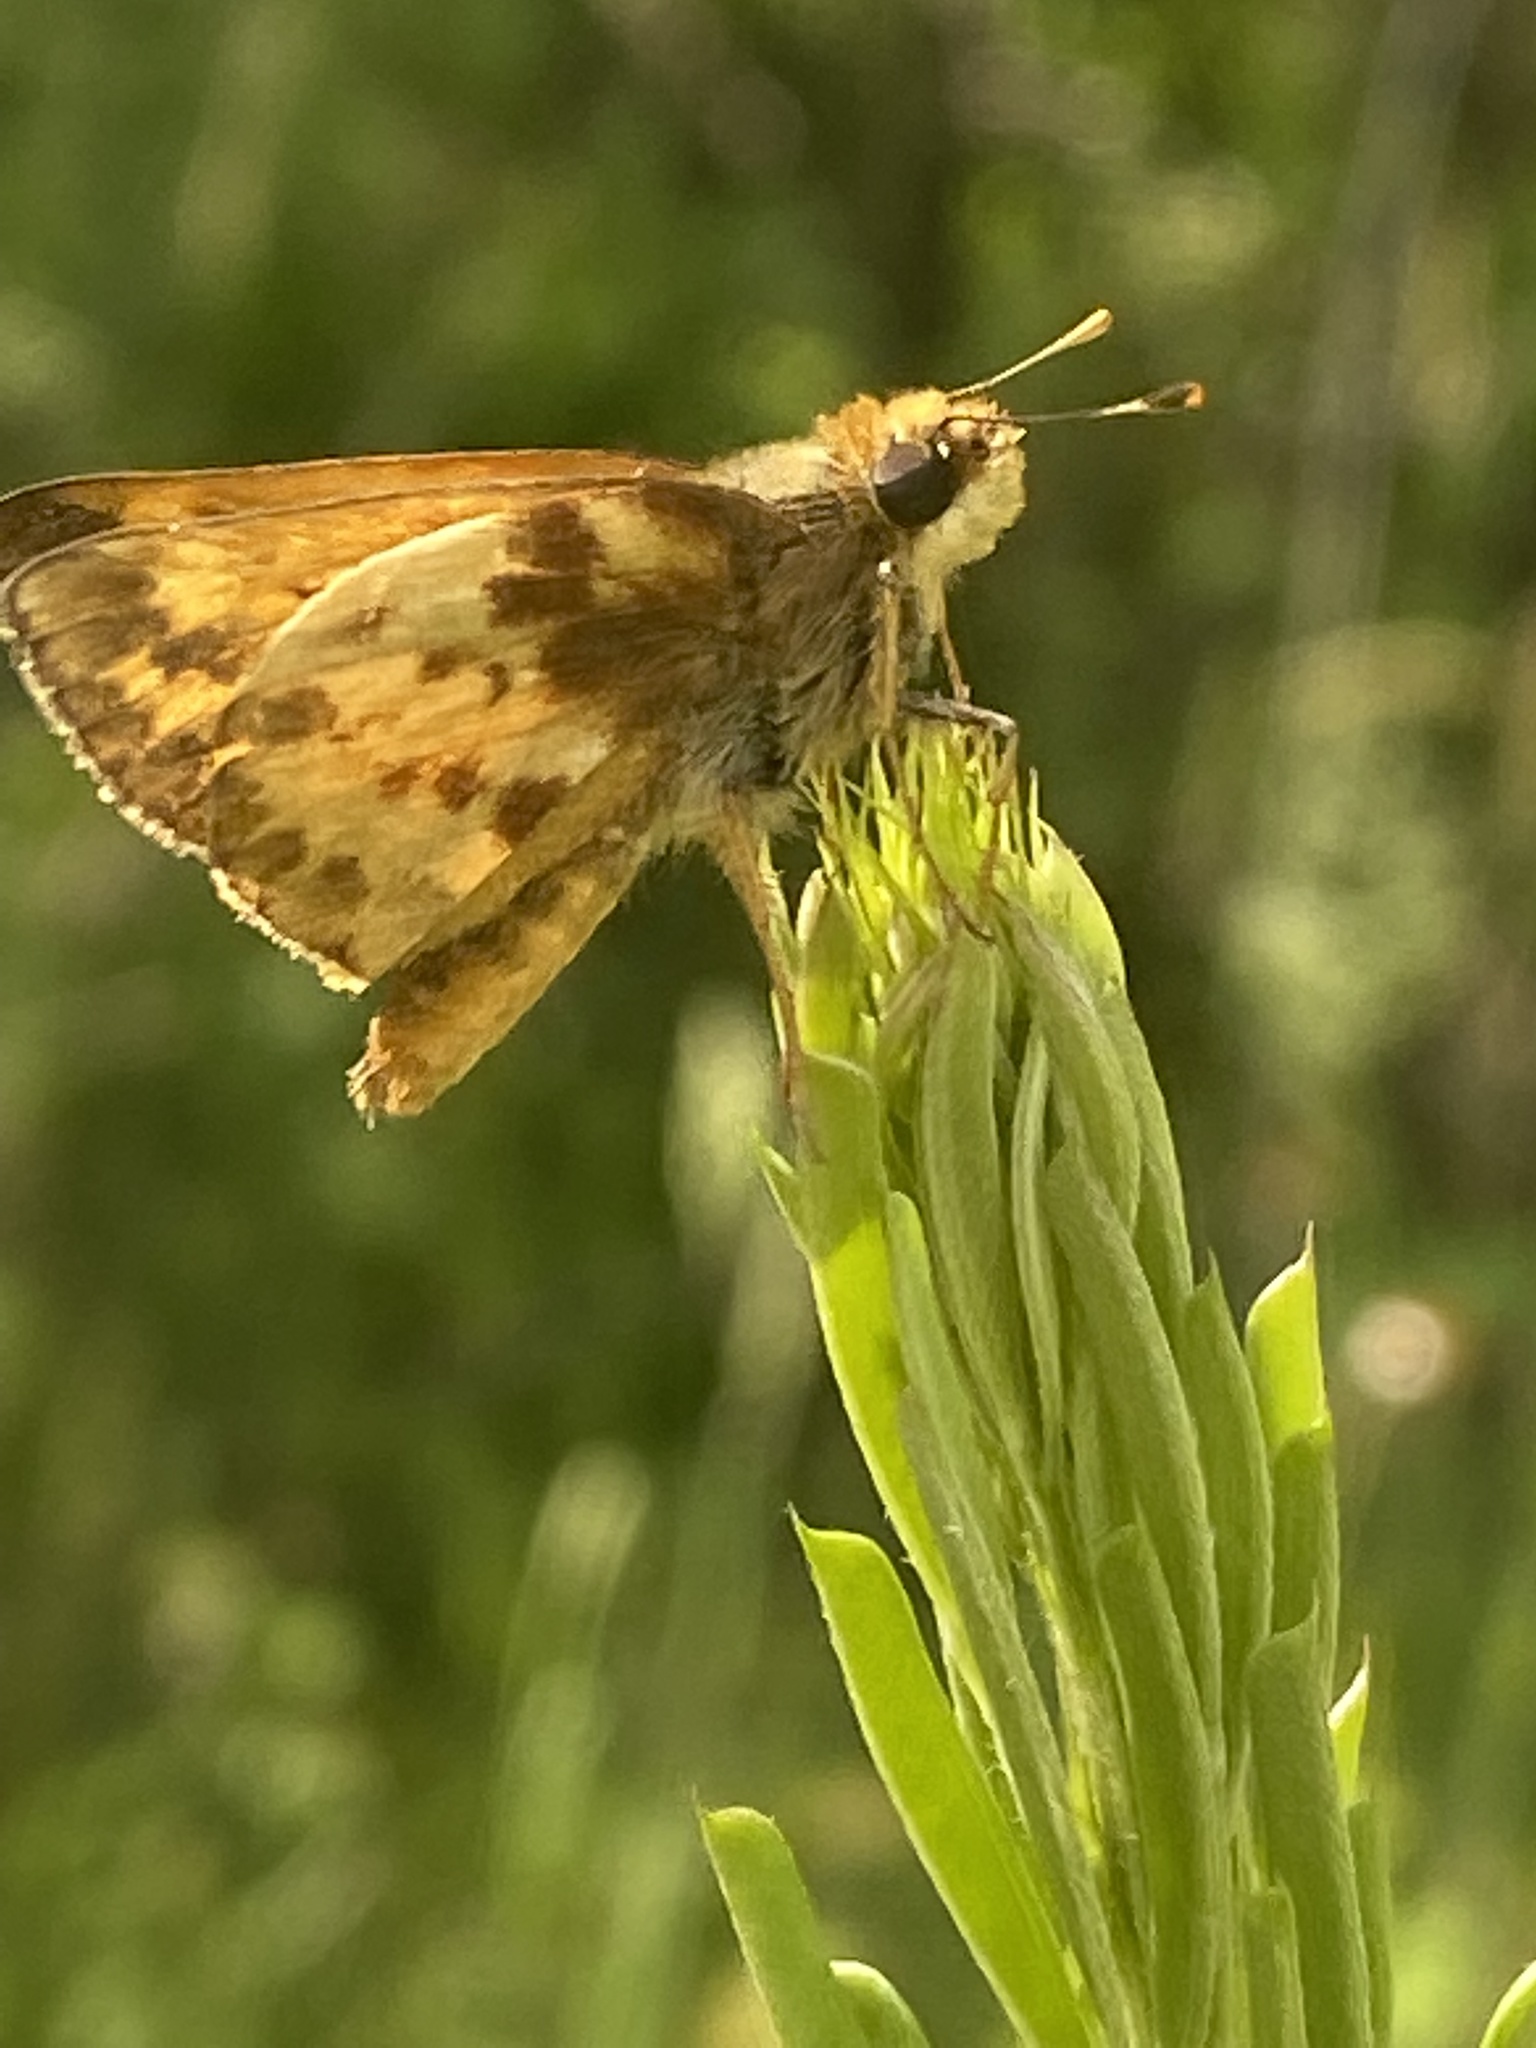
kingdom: Animalia
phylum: Arthropoda
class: Insecta
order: Lepidoptera
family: Hesperiidae
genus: Lon
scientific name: Lon zabulon
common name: Zabulon skipper
